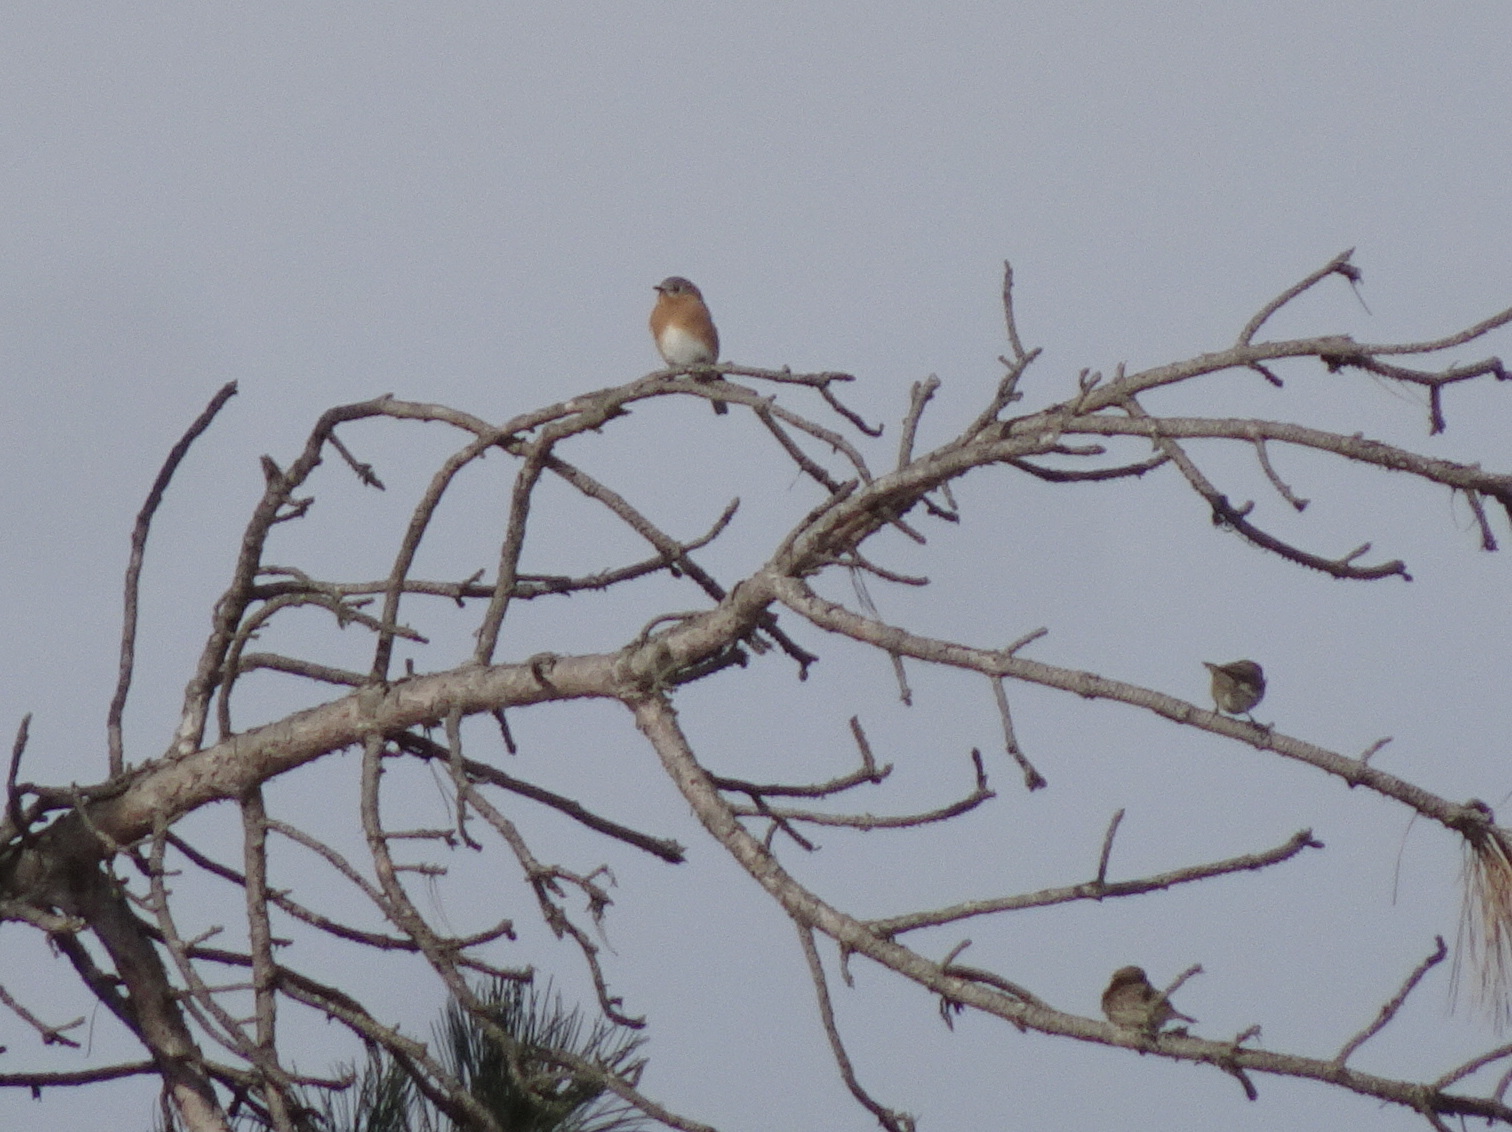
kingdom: Animalia
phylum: Chordata
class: Aves
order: Passeriformes
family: Turdidae
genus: Sialia
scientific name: Sialia sialis
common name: Eastern bluebird
